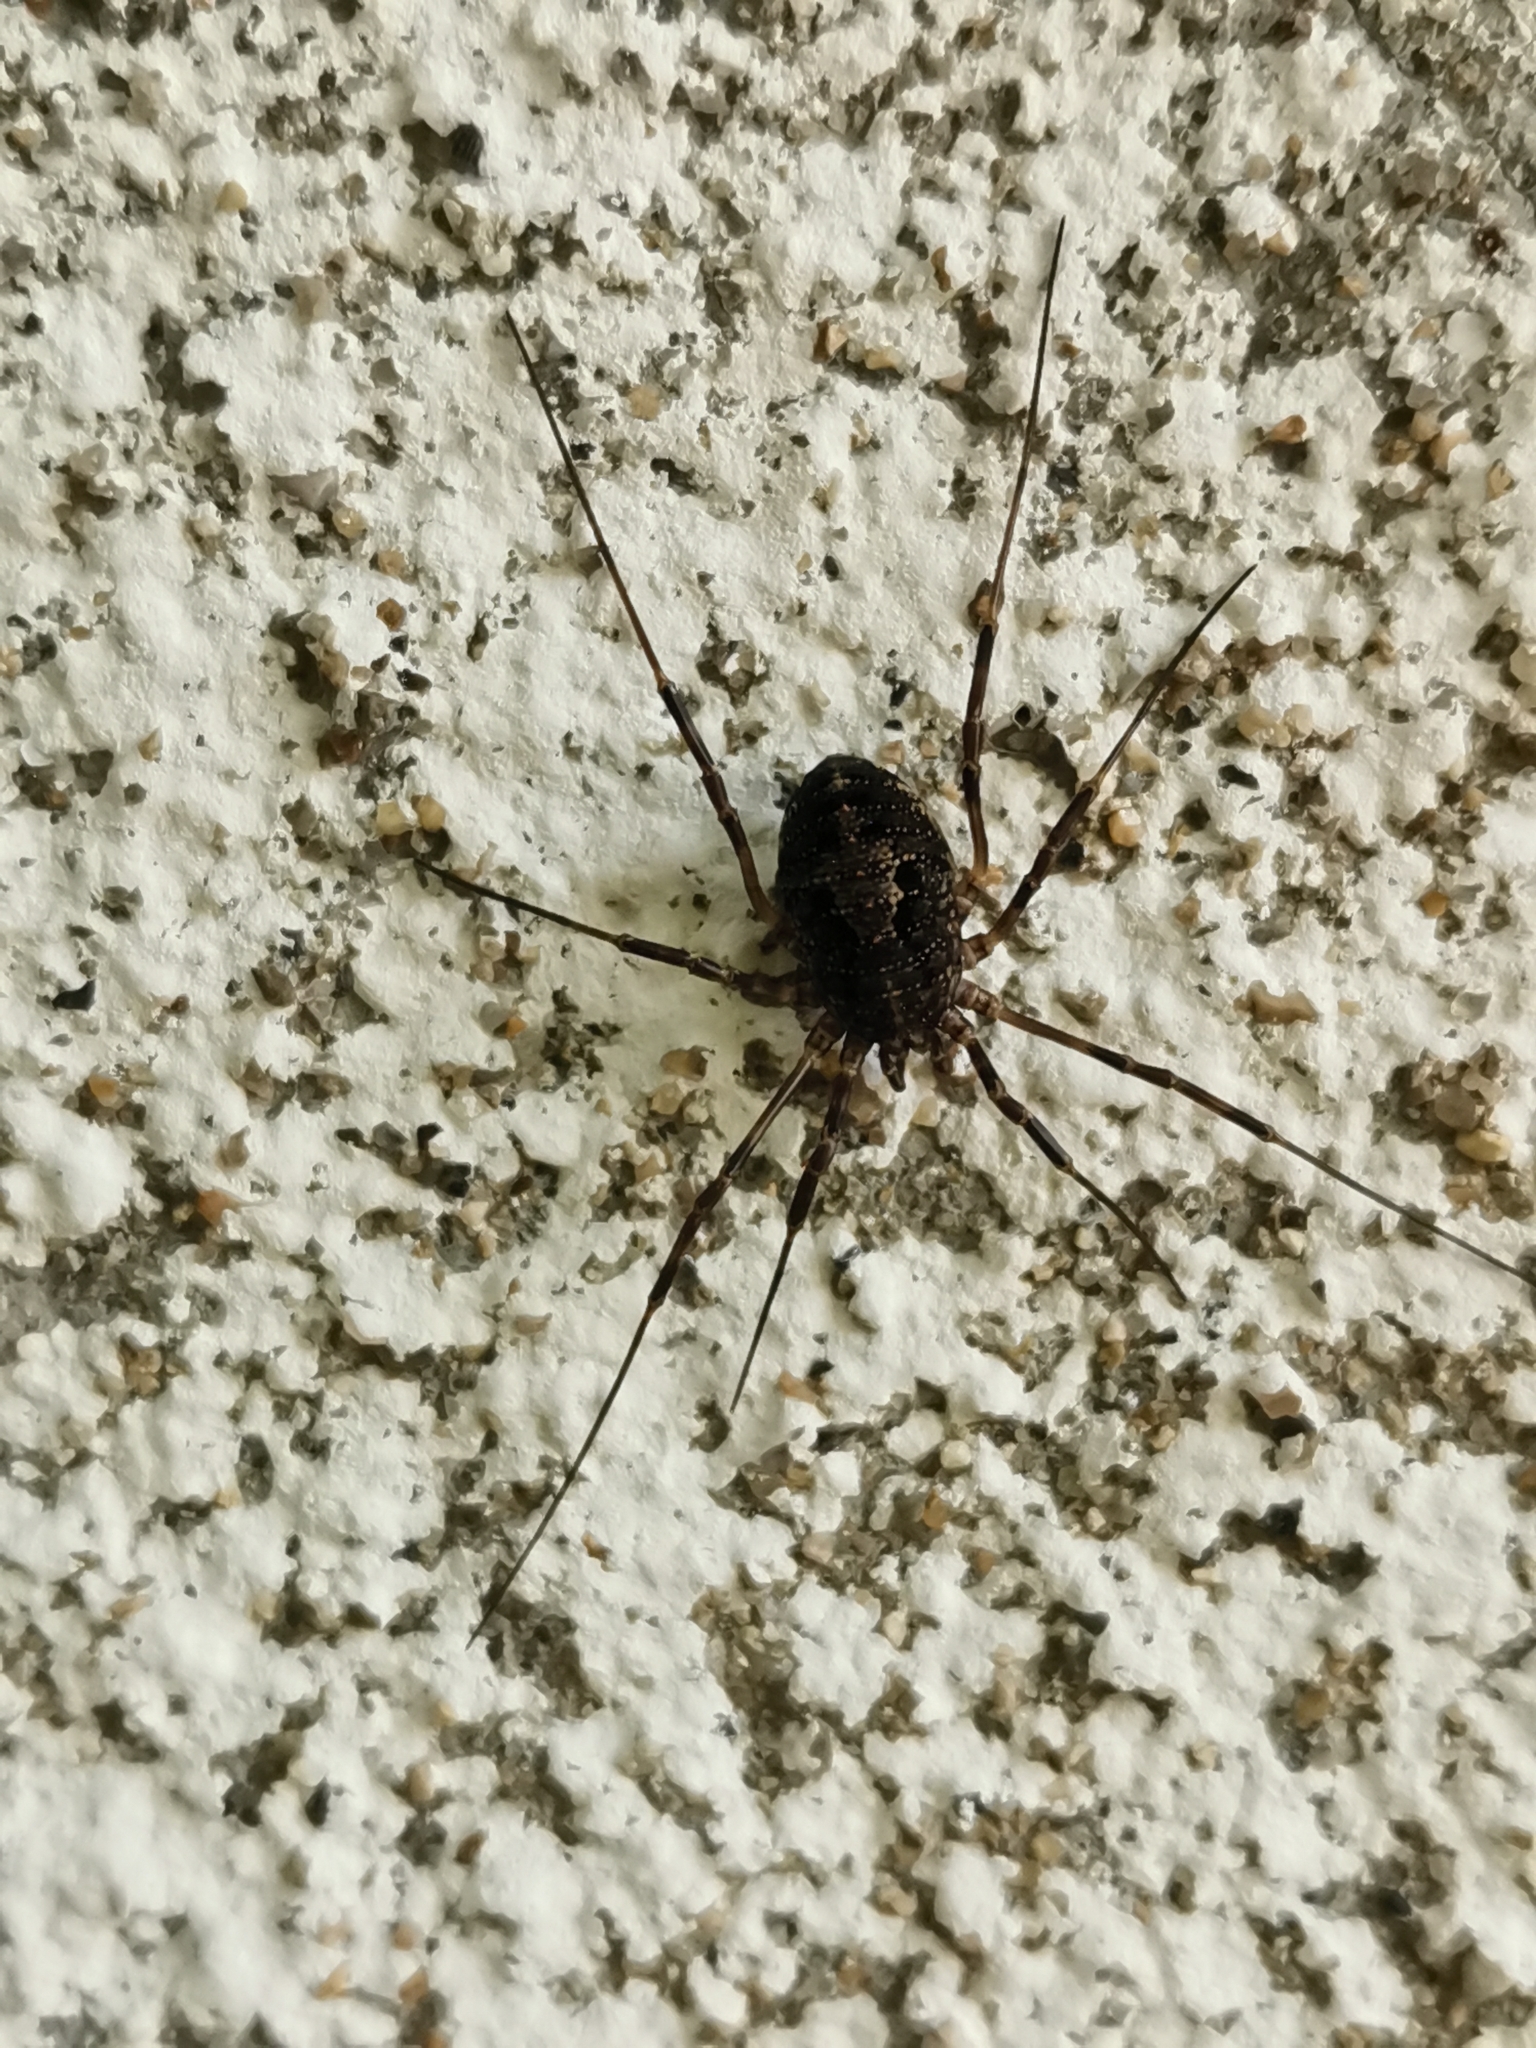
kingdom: Animalia
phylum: Arthropoda
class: Arachnida
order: Opiliones
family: Phalangiidae
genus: Himalphalangium
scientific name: Himalphalangium spinulatum
